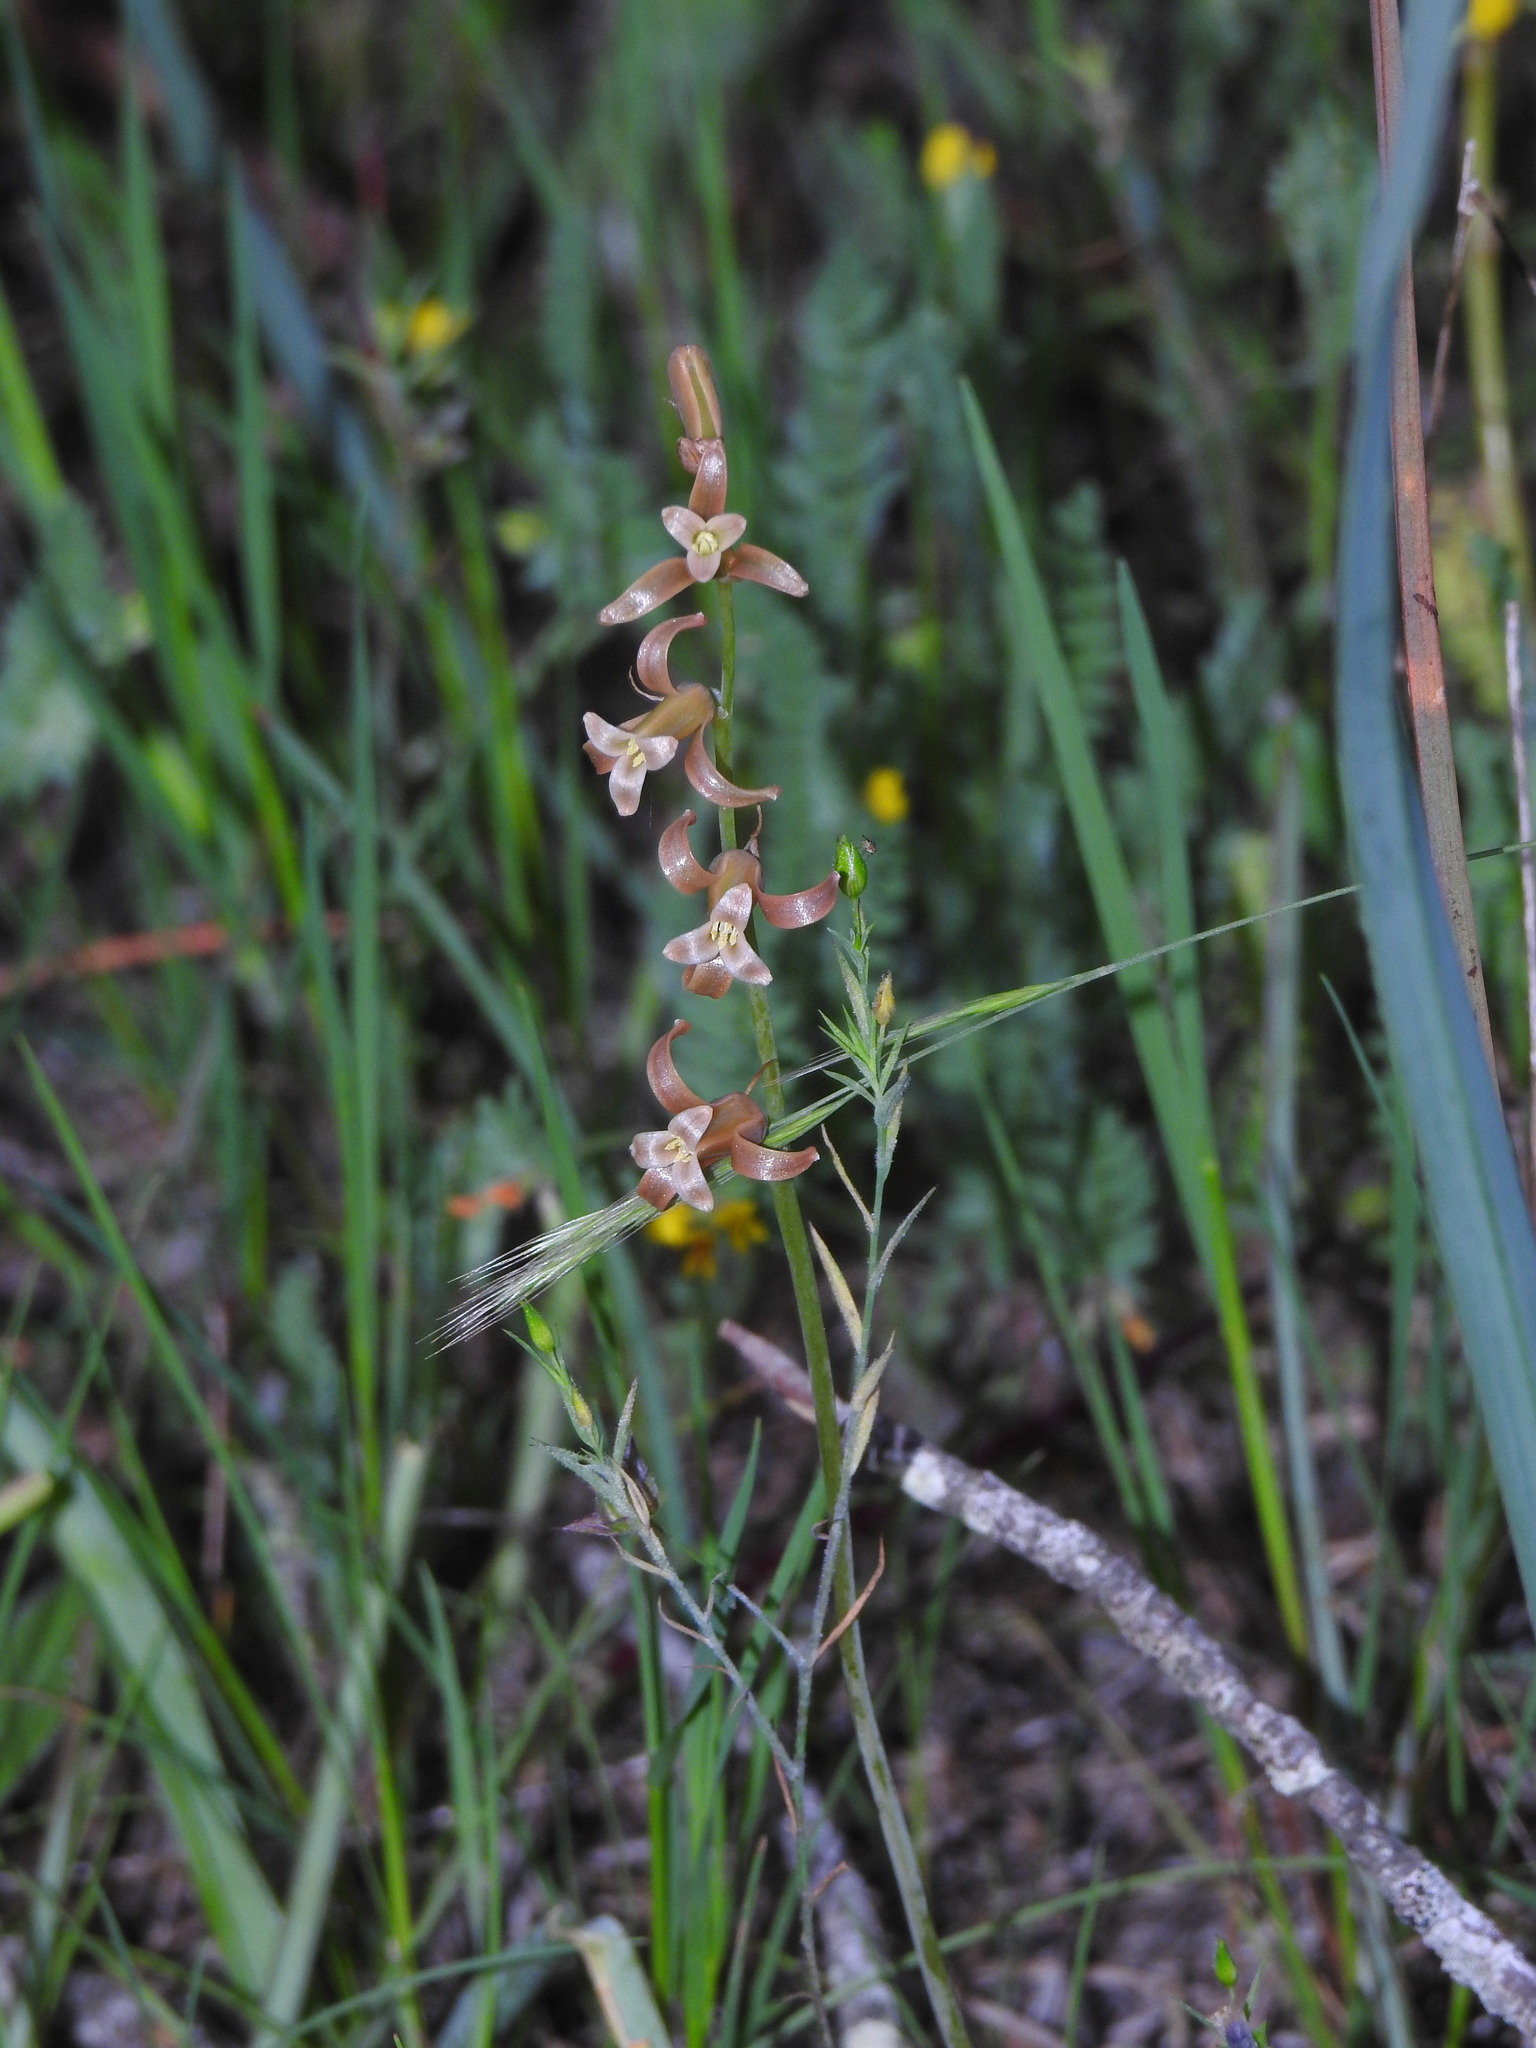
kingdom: Plantae
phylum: Tracheophyta
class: Liliopsida
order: Asparagales
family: Asparagaceae
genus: Dipcadi
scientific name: Dipcadi serotinum
